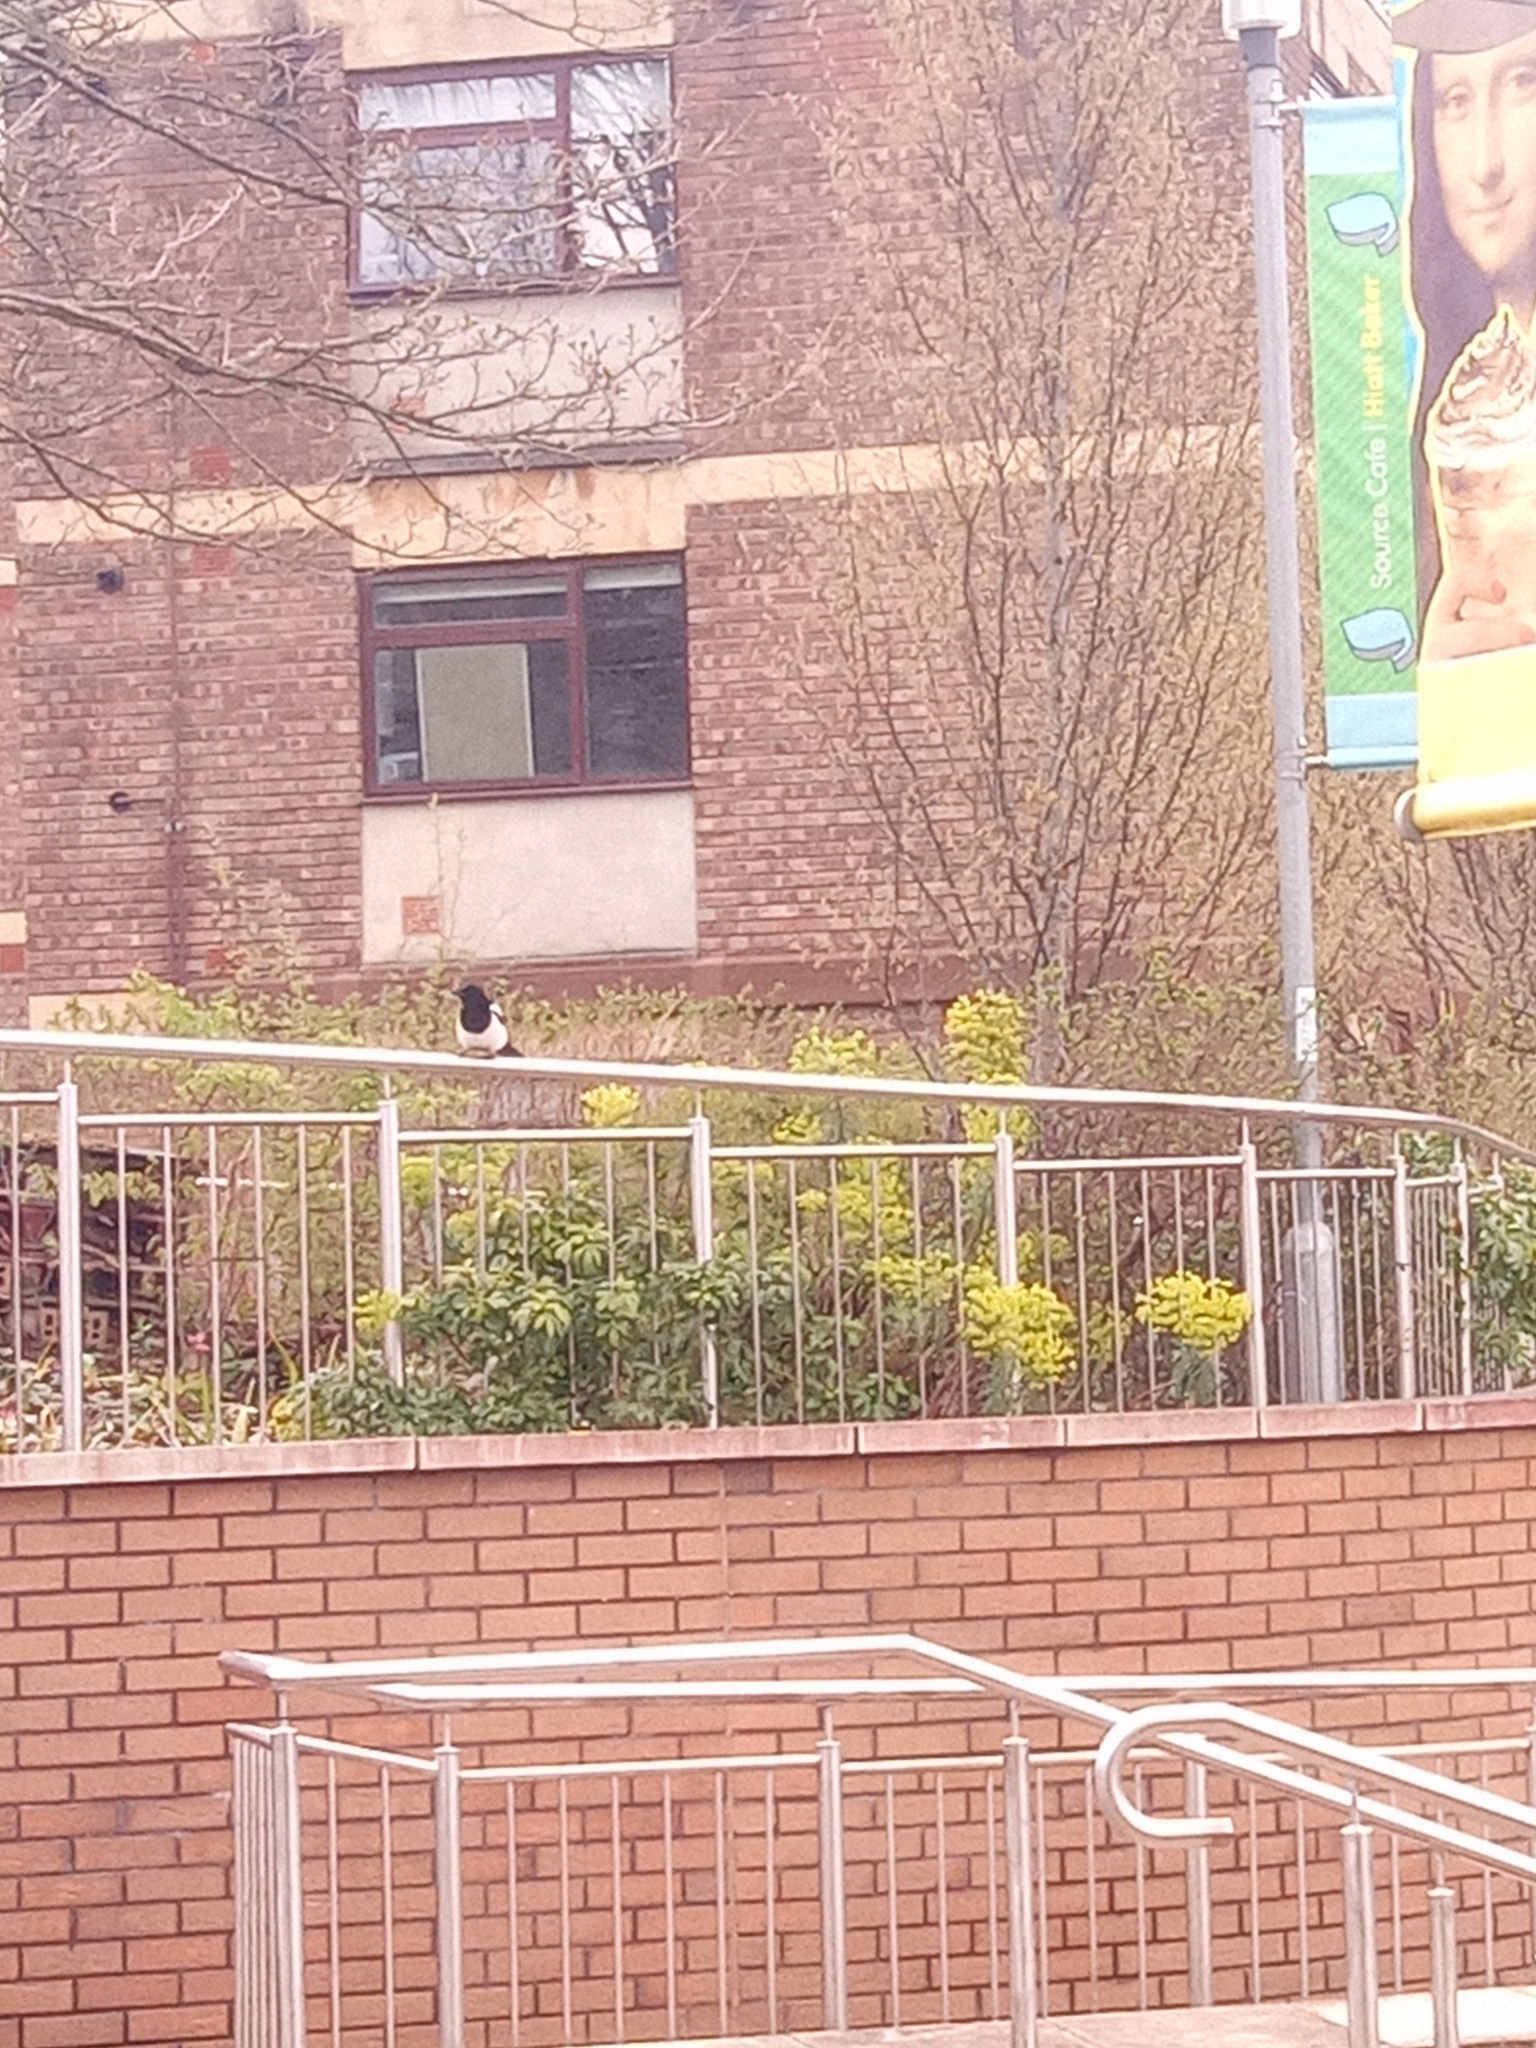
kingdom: Animalia
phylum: Chordata
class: Aves
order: Passeriformes
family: Corvidae
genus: Pica
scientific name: Pica pica
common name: Eurasian magpie
